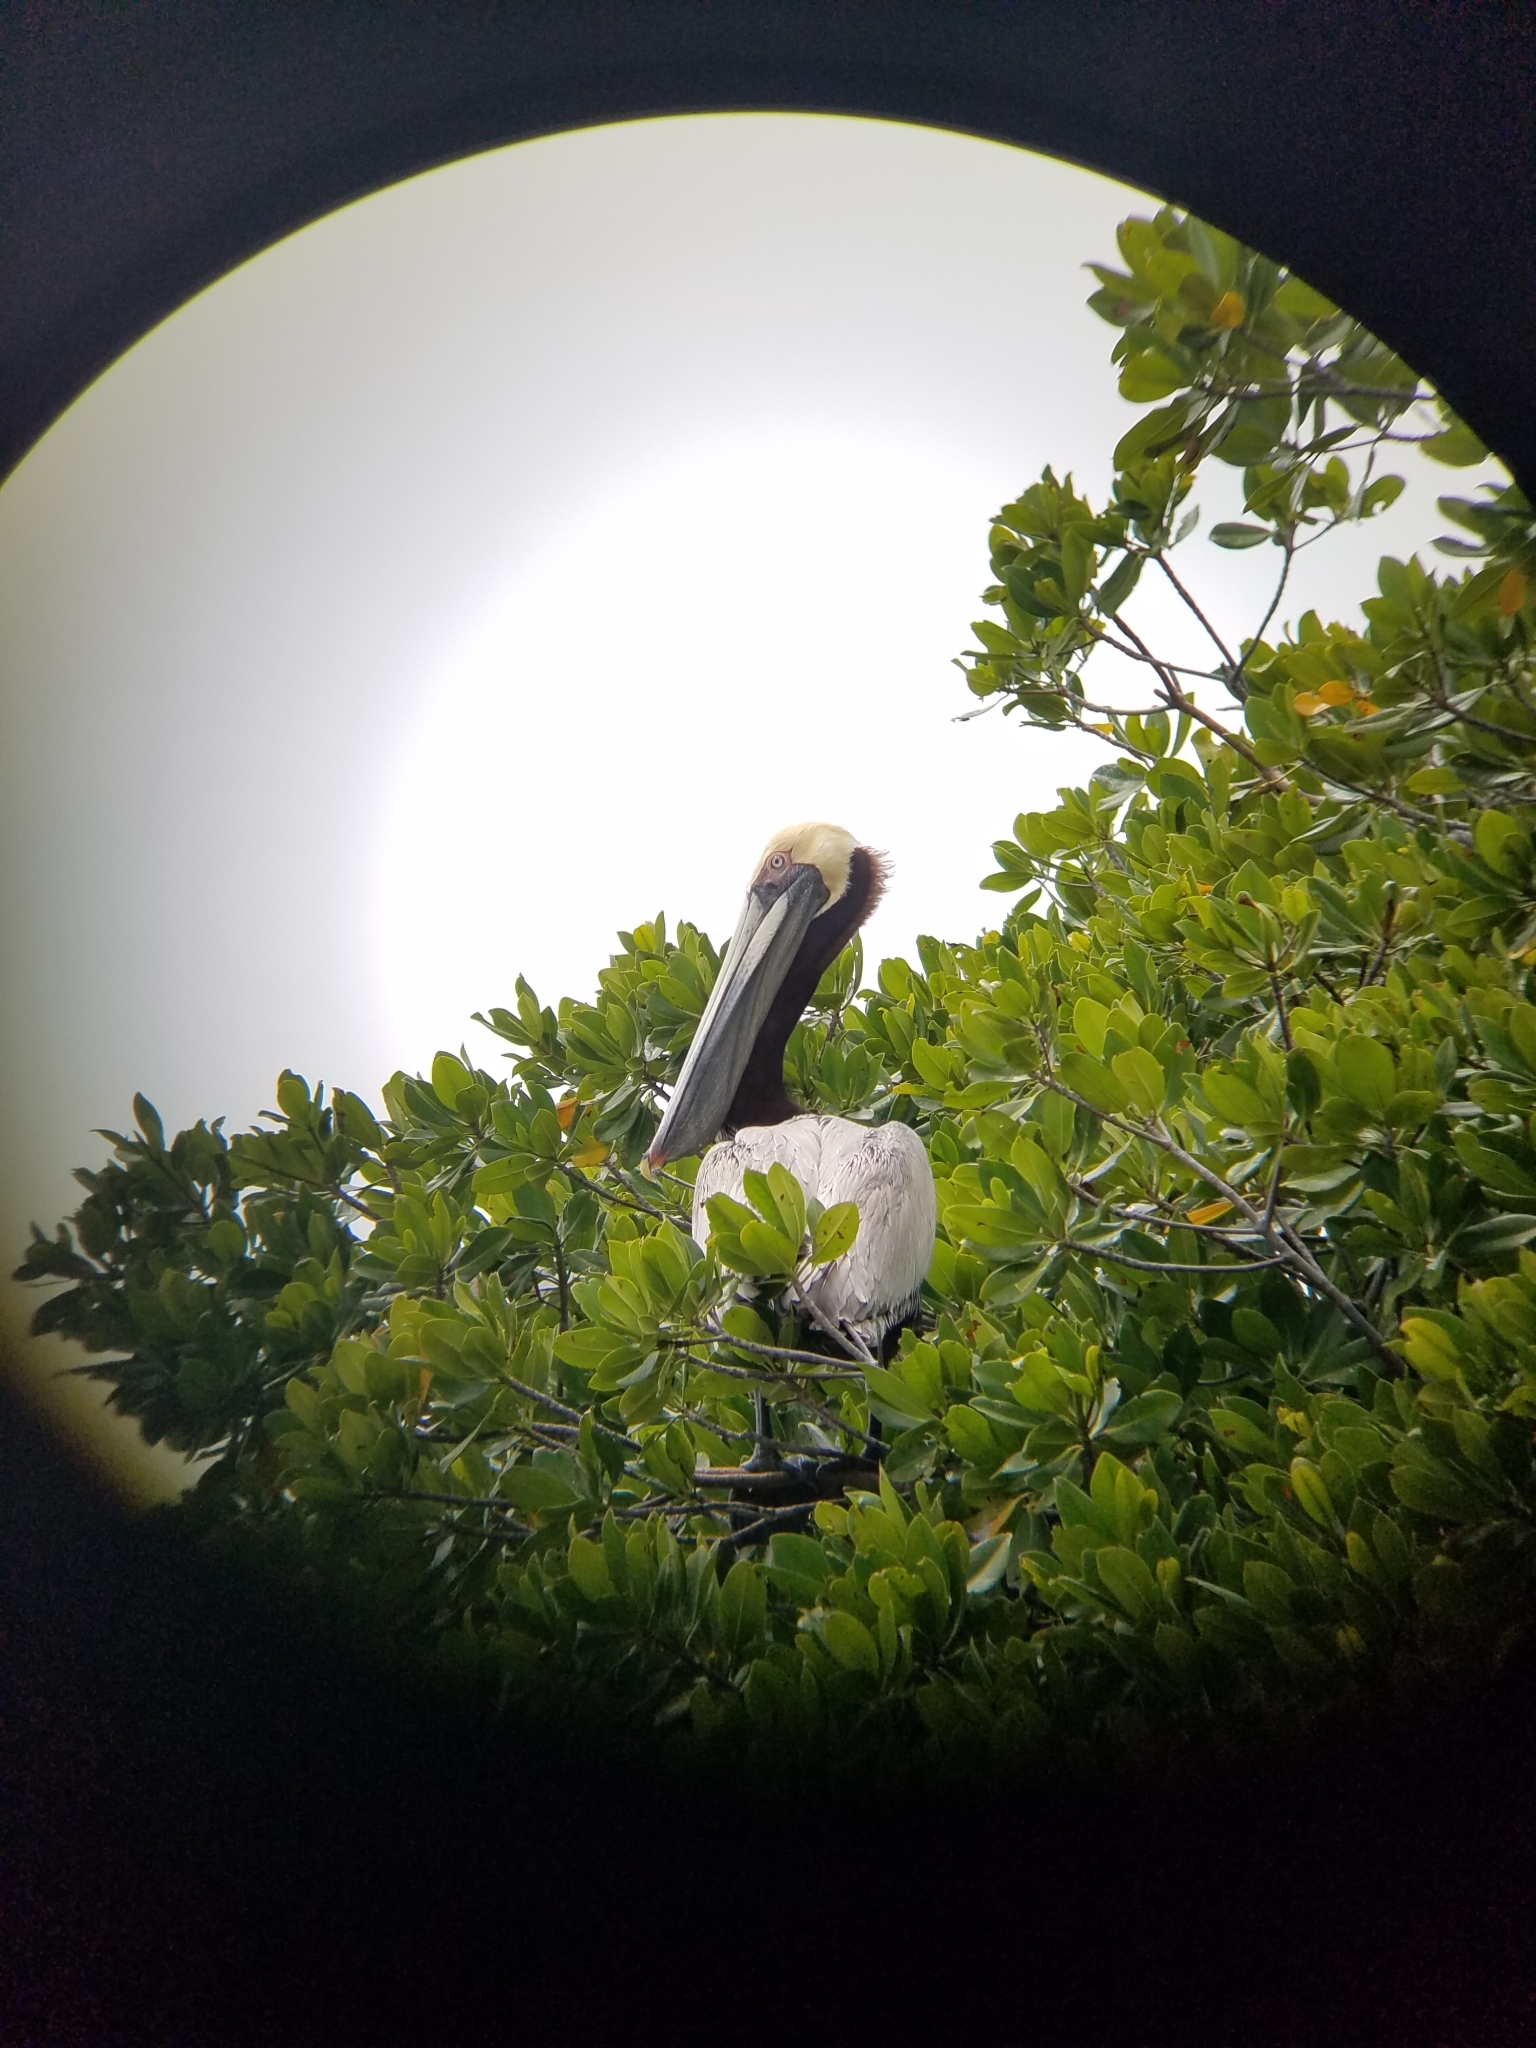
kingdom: Animalia
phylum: Chordata
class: Aves
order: Pelecaniformes
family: Pelecanidae
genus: Pelecanus
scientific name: Pelecanus occidentalis
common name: Brown pelican
